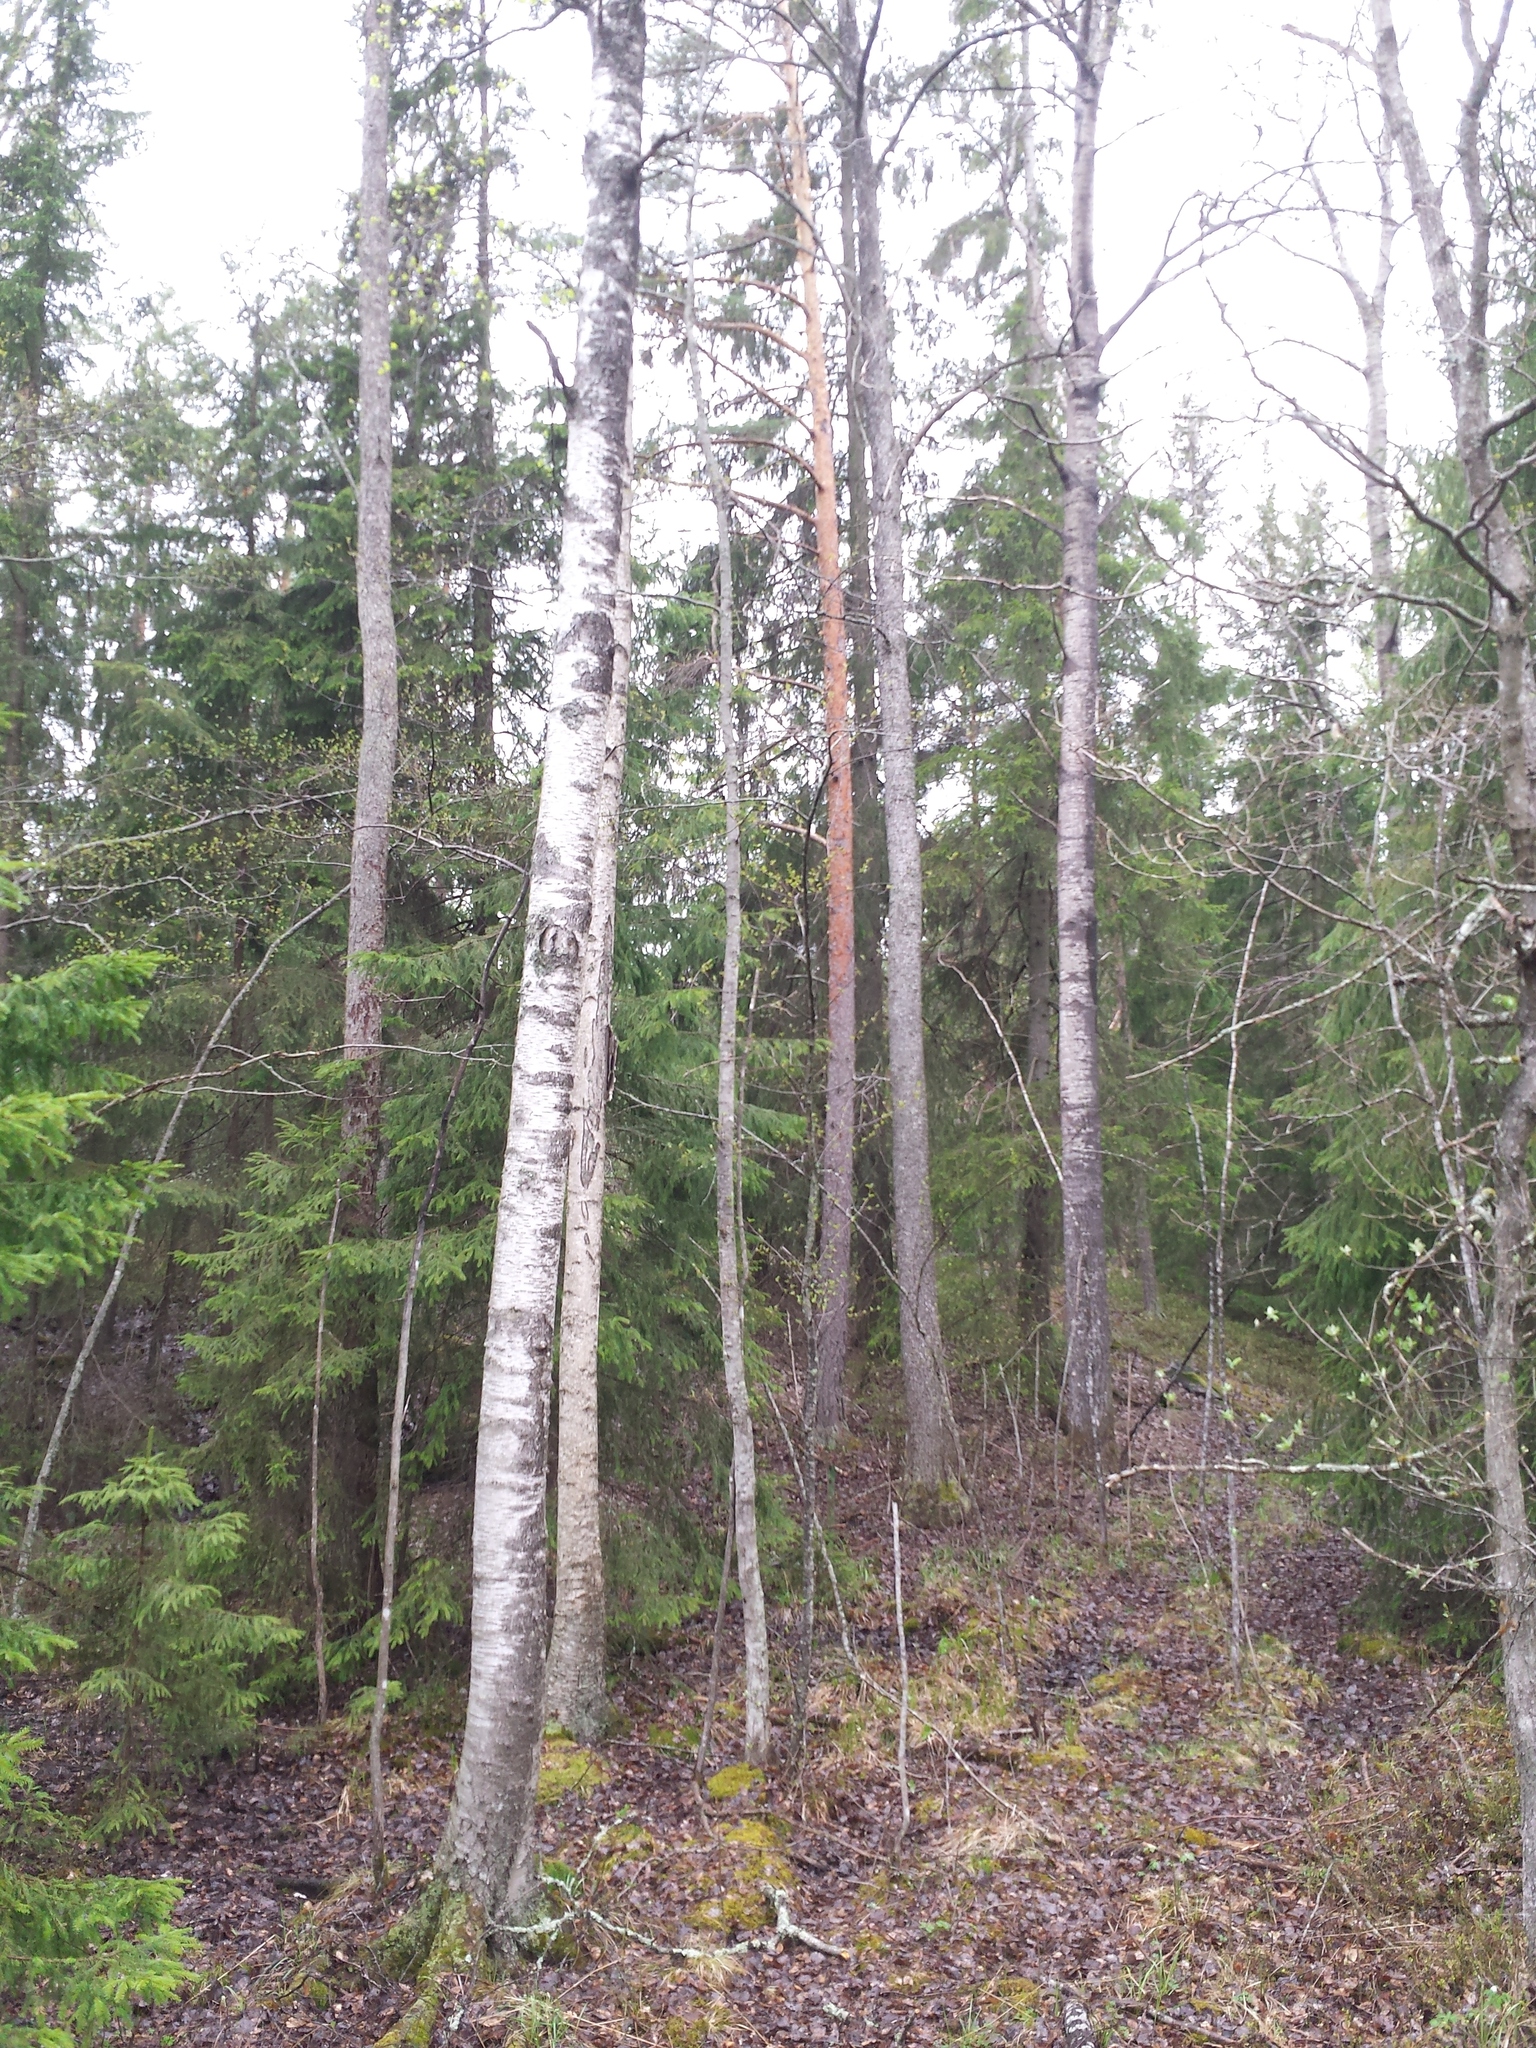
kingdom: Plantae
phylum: Tracheophyta
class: Pinopsida
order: Pinales
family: Pinaceae
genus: Picea
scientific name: Picea abies
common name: Norway spruce
